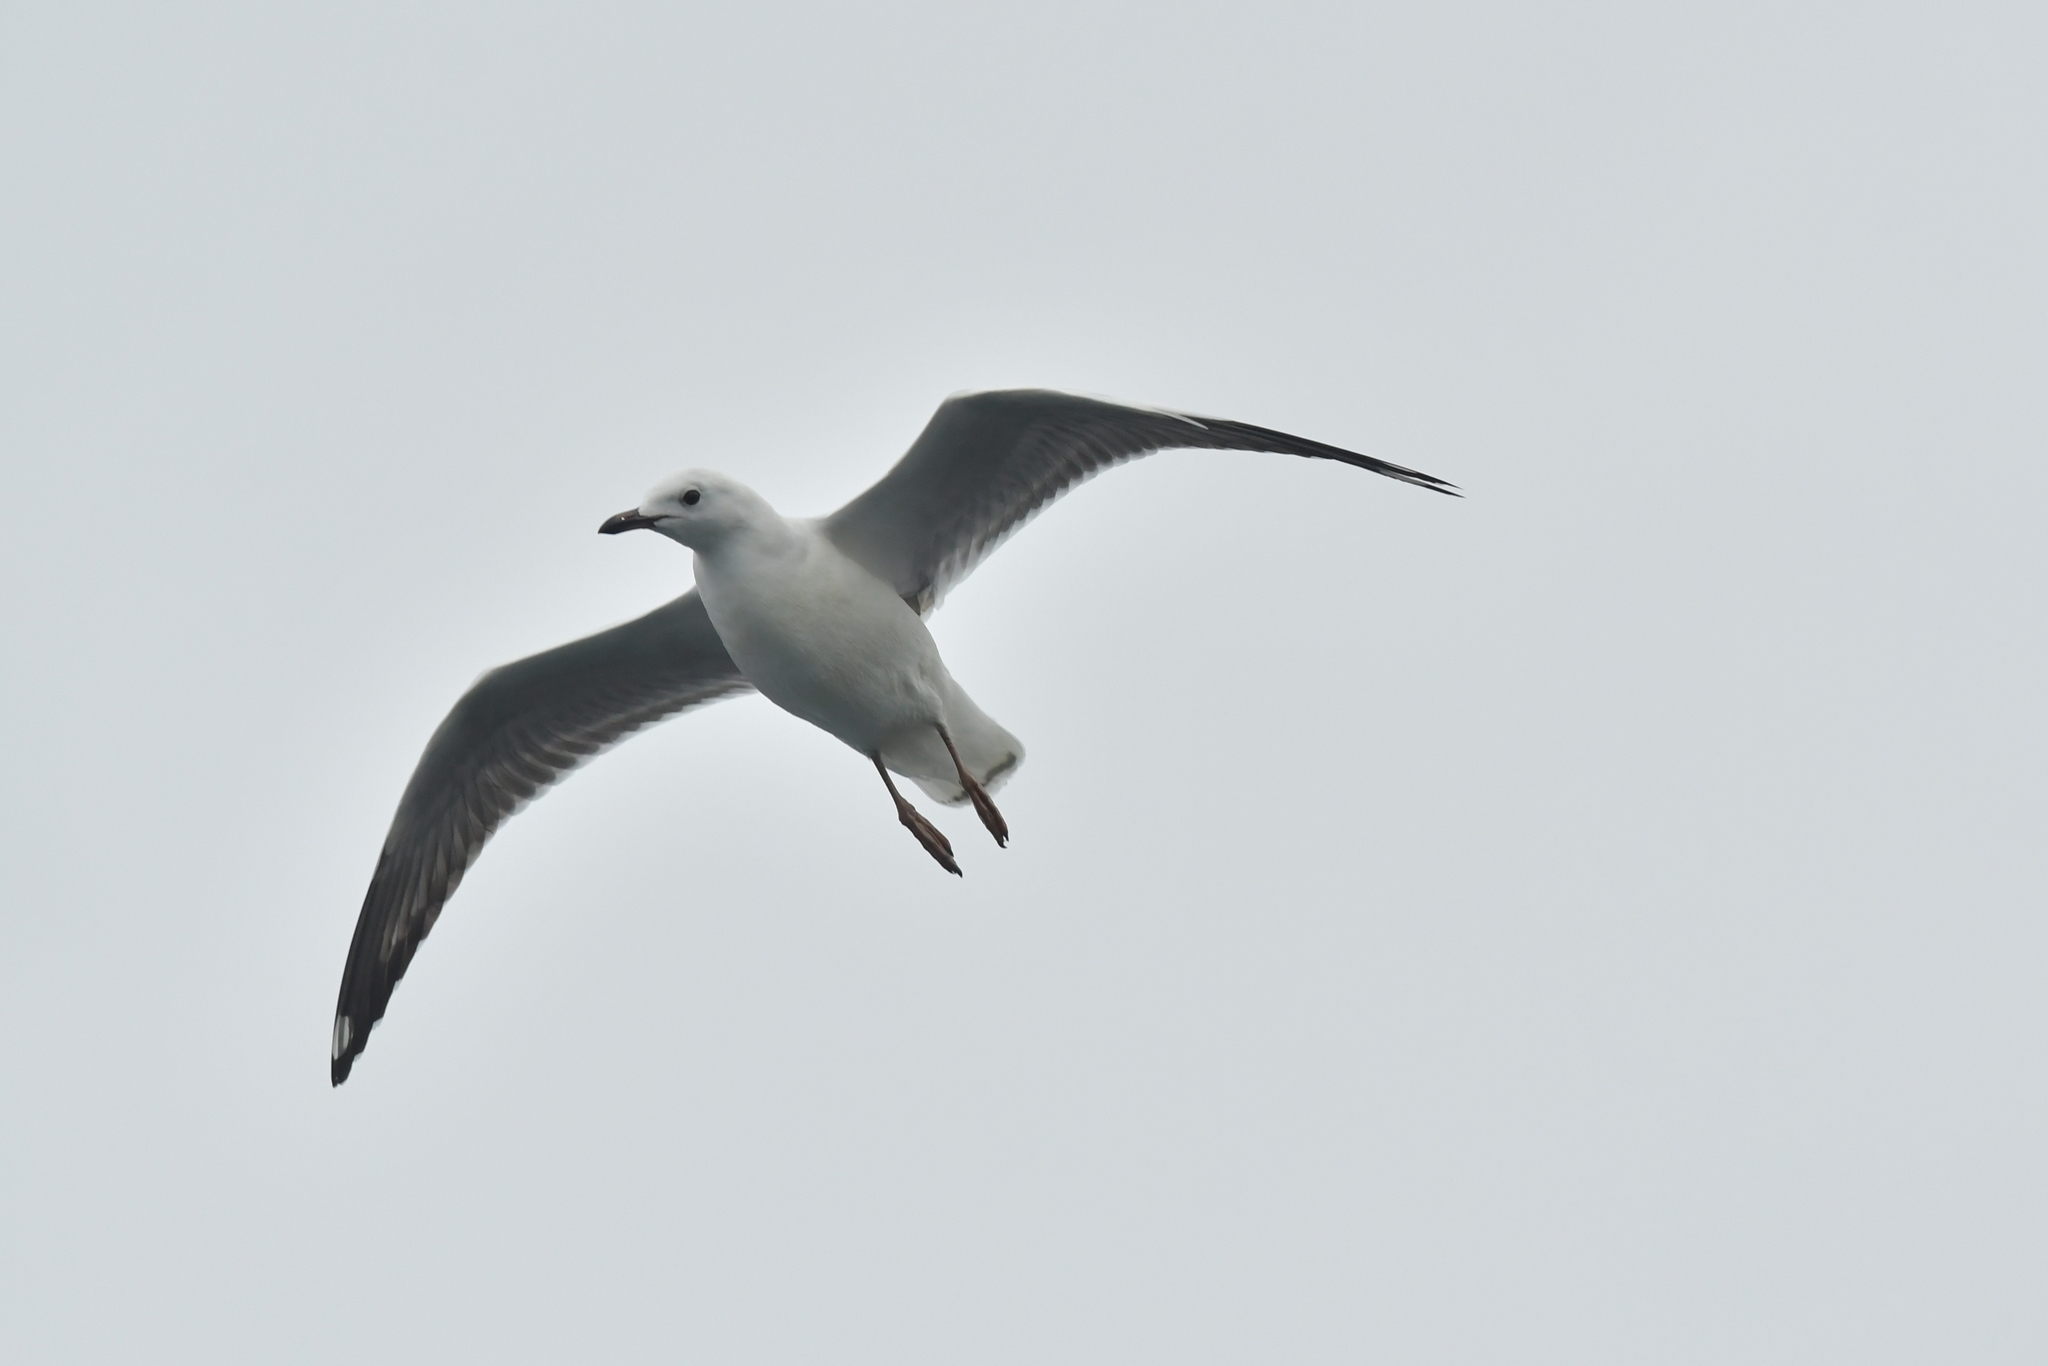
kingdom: Animalia
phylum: Chordata
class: Aves
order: Charadriiformes
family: Laridae
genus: Chroicocephalus
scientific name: Chroicocephalus novaehollandiae
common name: Silver gull
